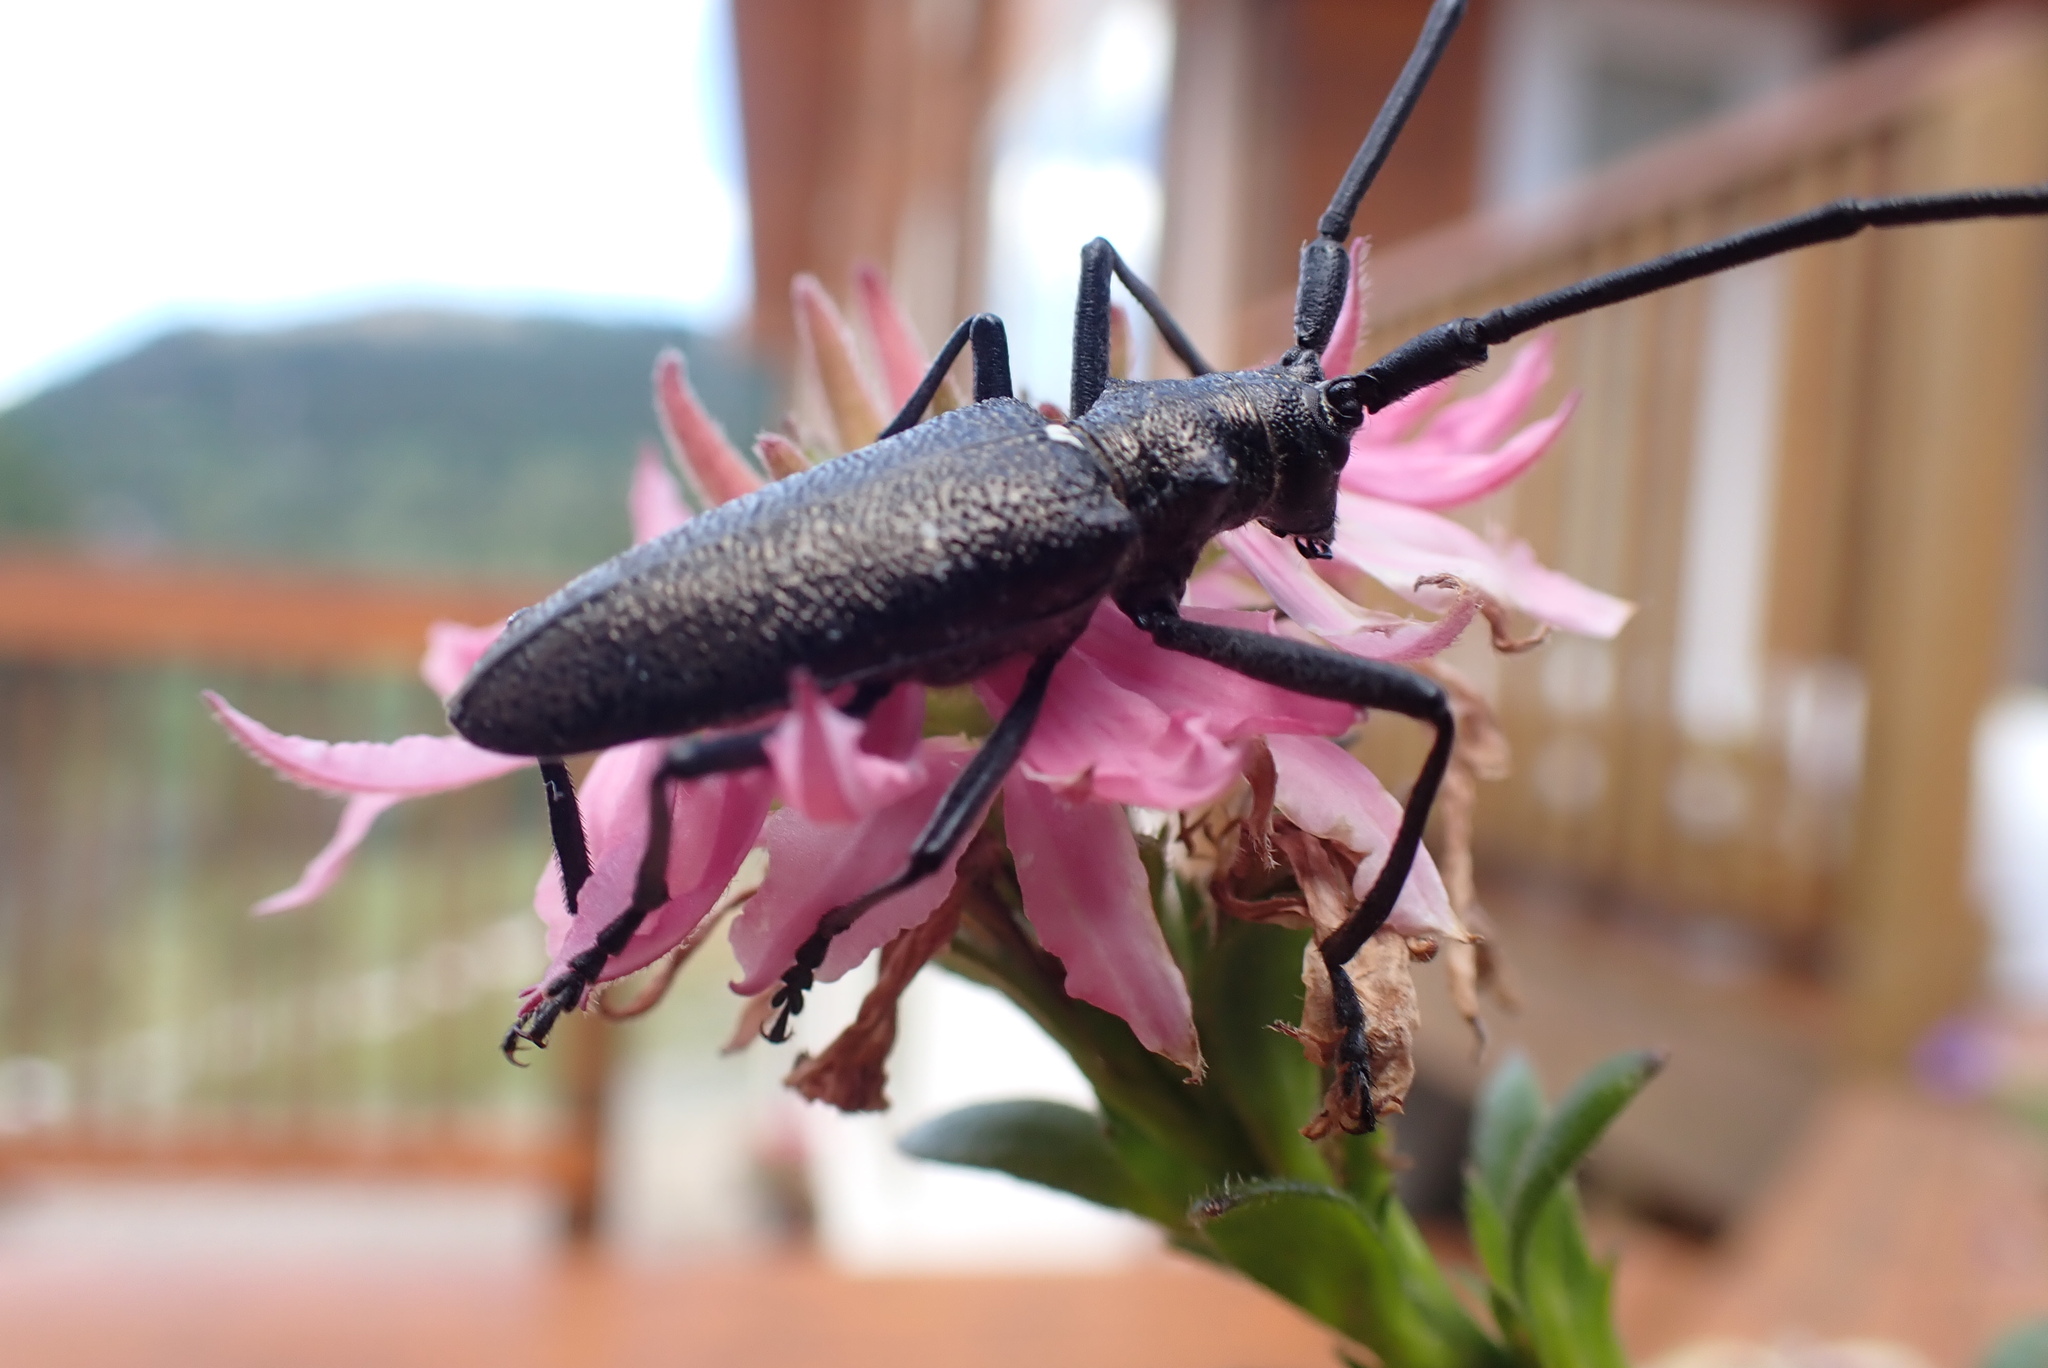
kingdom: Animalia
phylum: Arthropoda
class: Insecta
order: Coleoptera
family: Cerambycidae
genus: Monochamus
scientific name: Monochamus scutellatus
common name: White-spotted sawyer beetle
